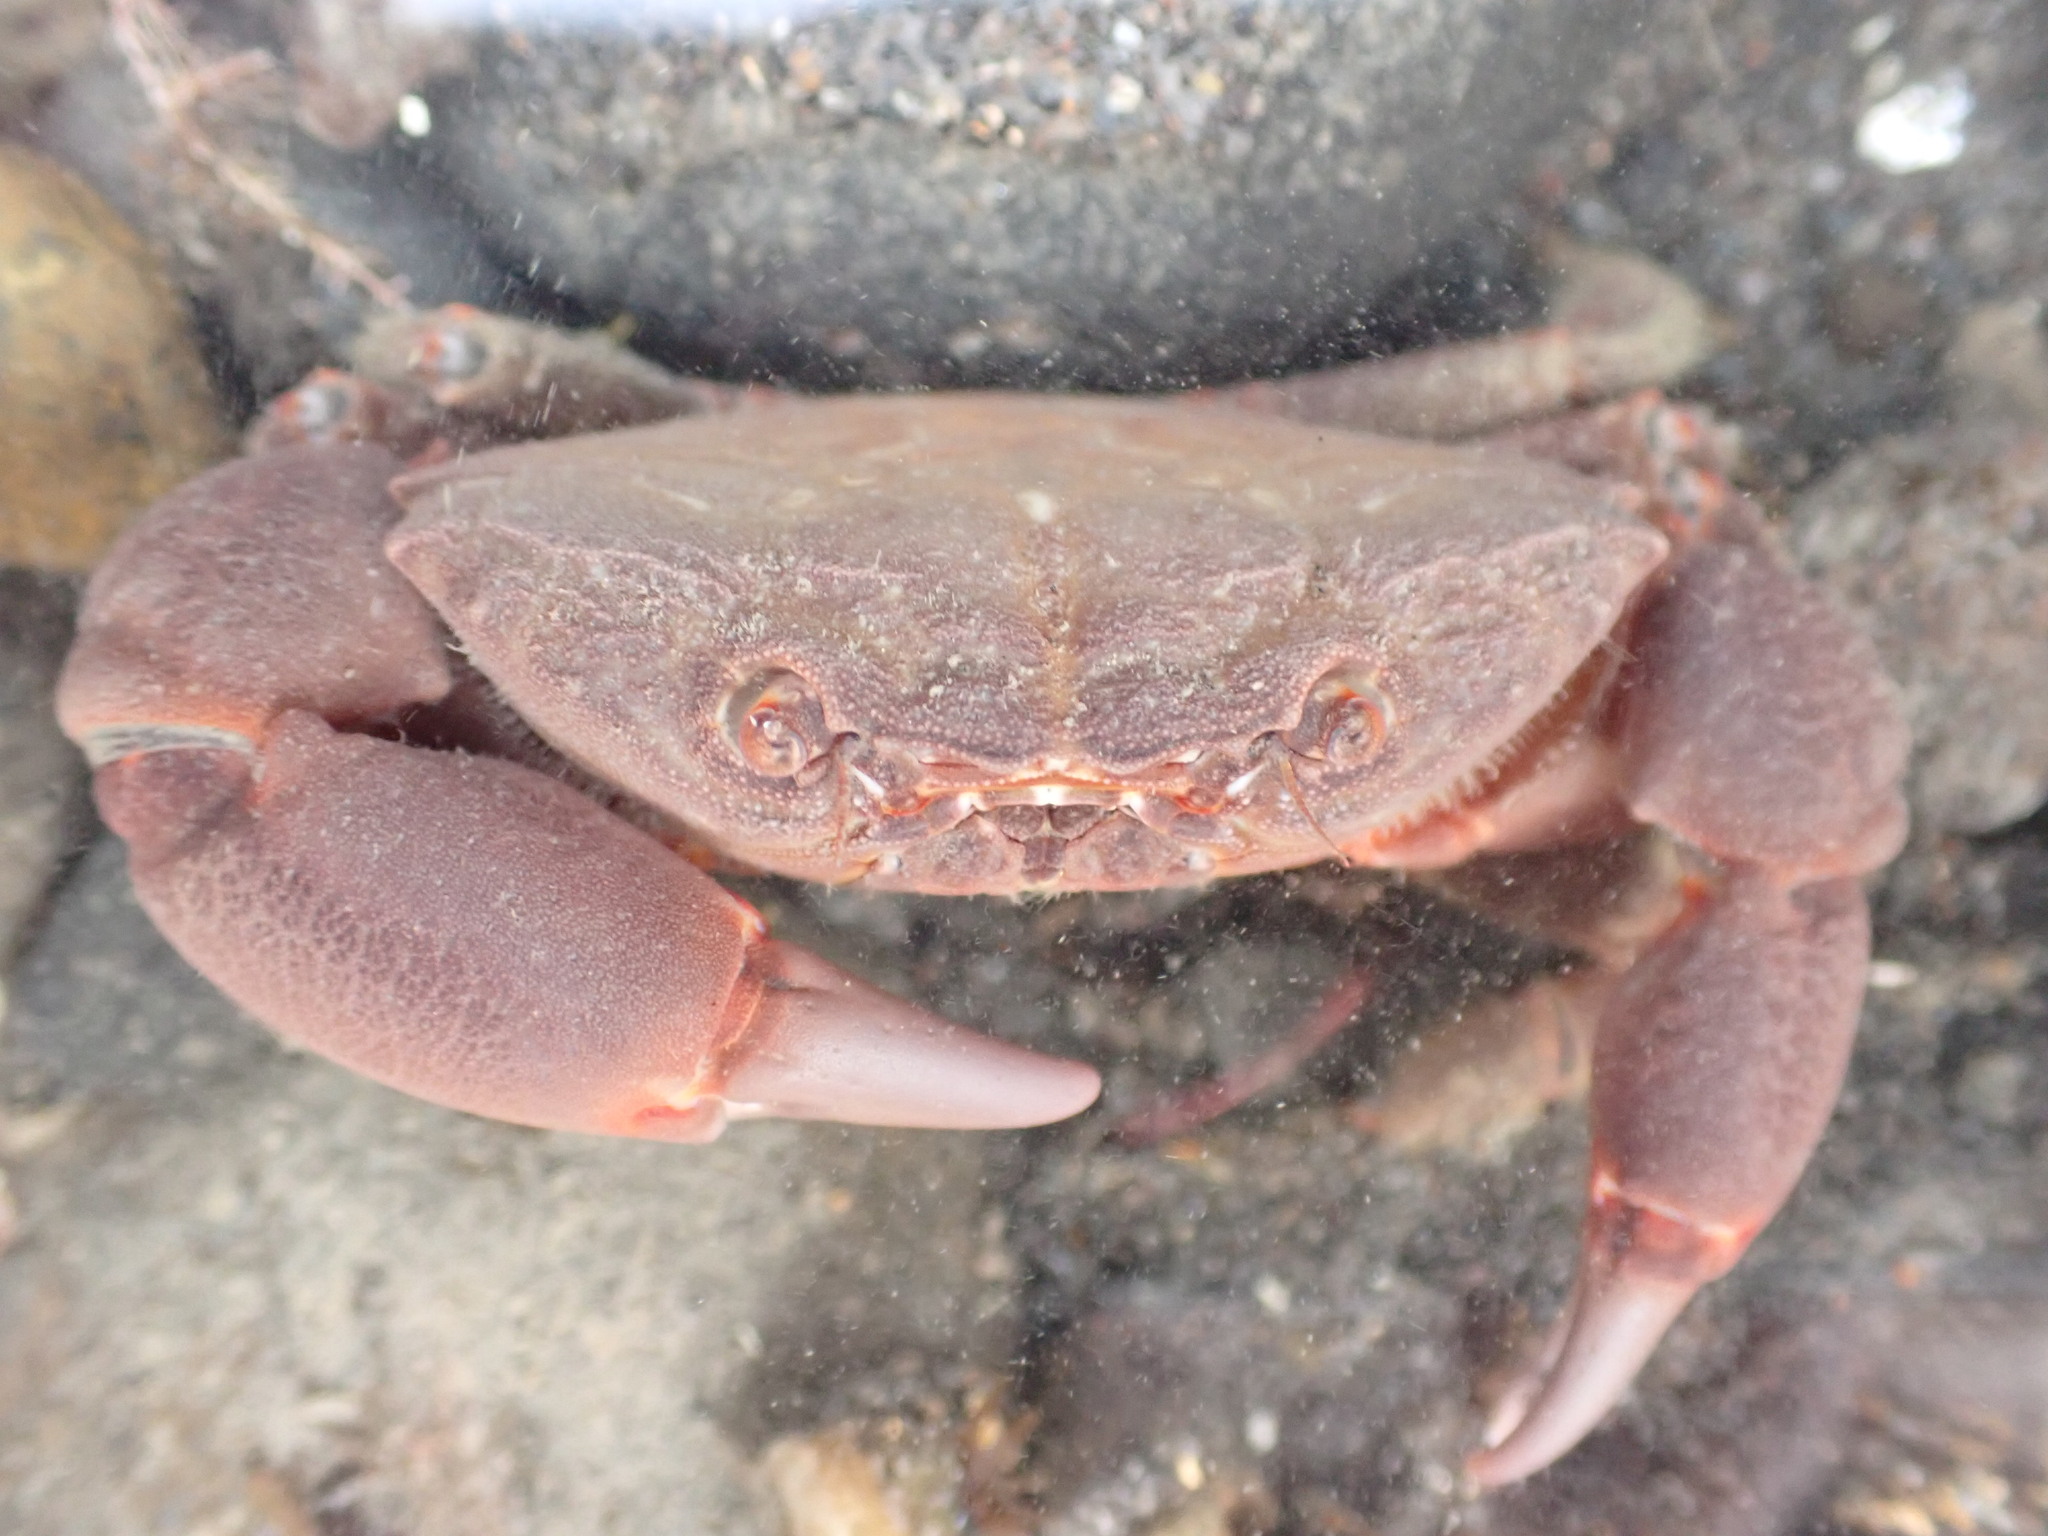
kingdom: Animalia
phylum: Arthropoda
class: Malacostraca
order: Decapoda
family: Oziidae
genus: Ozius
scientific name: Ozius deplanatus
